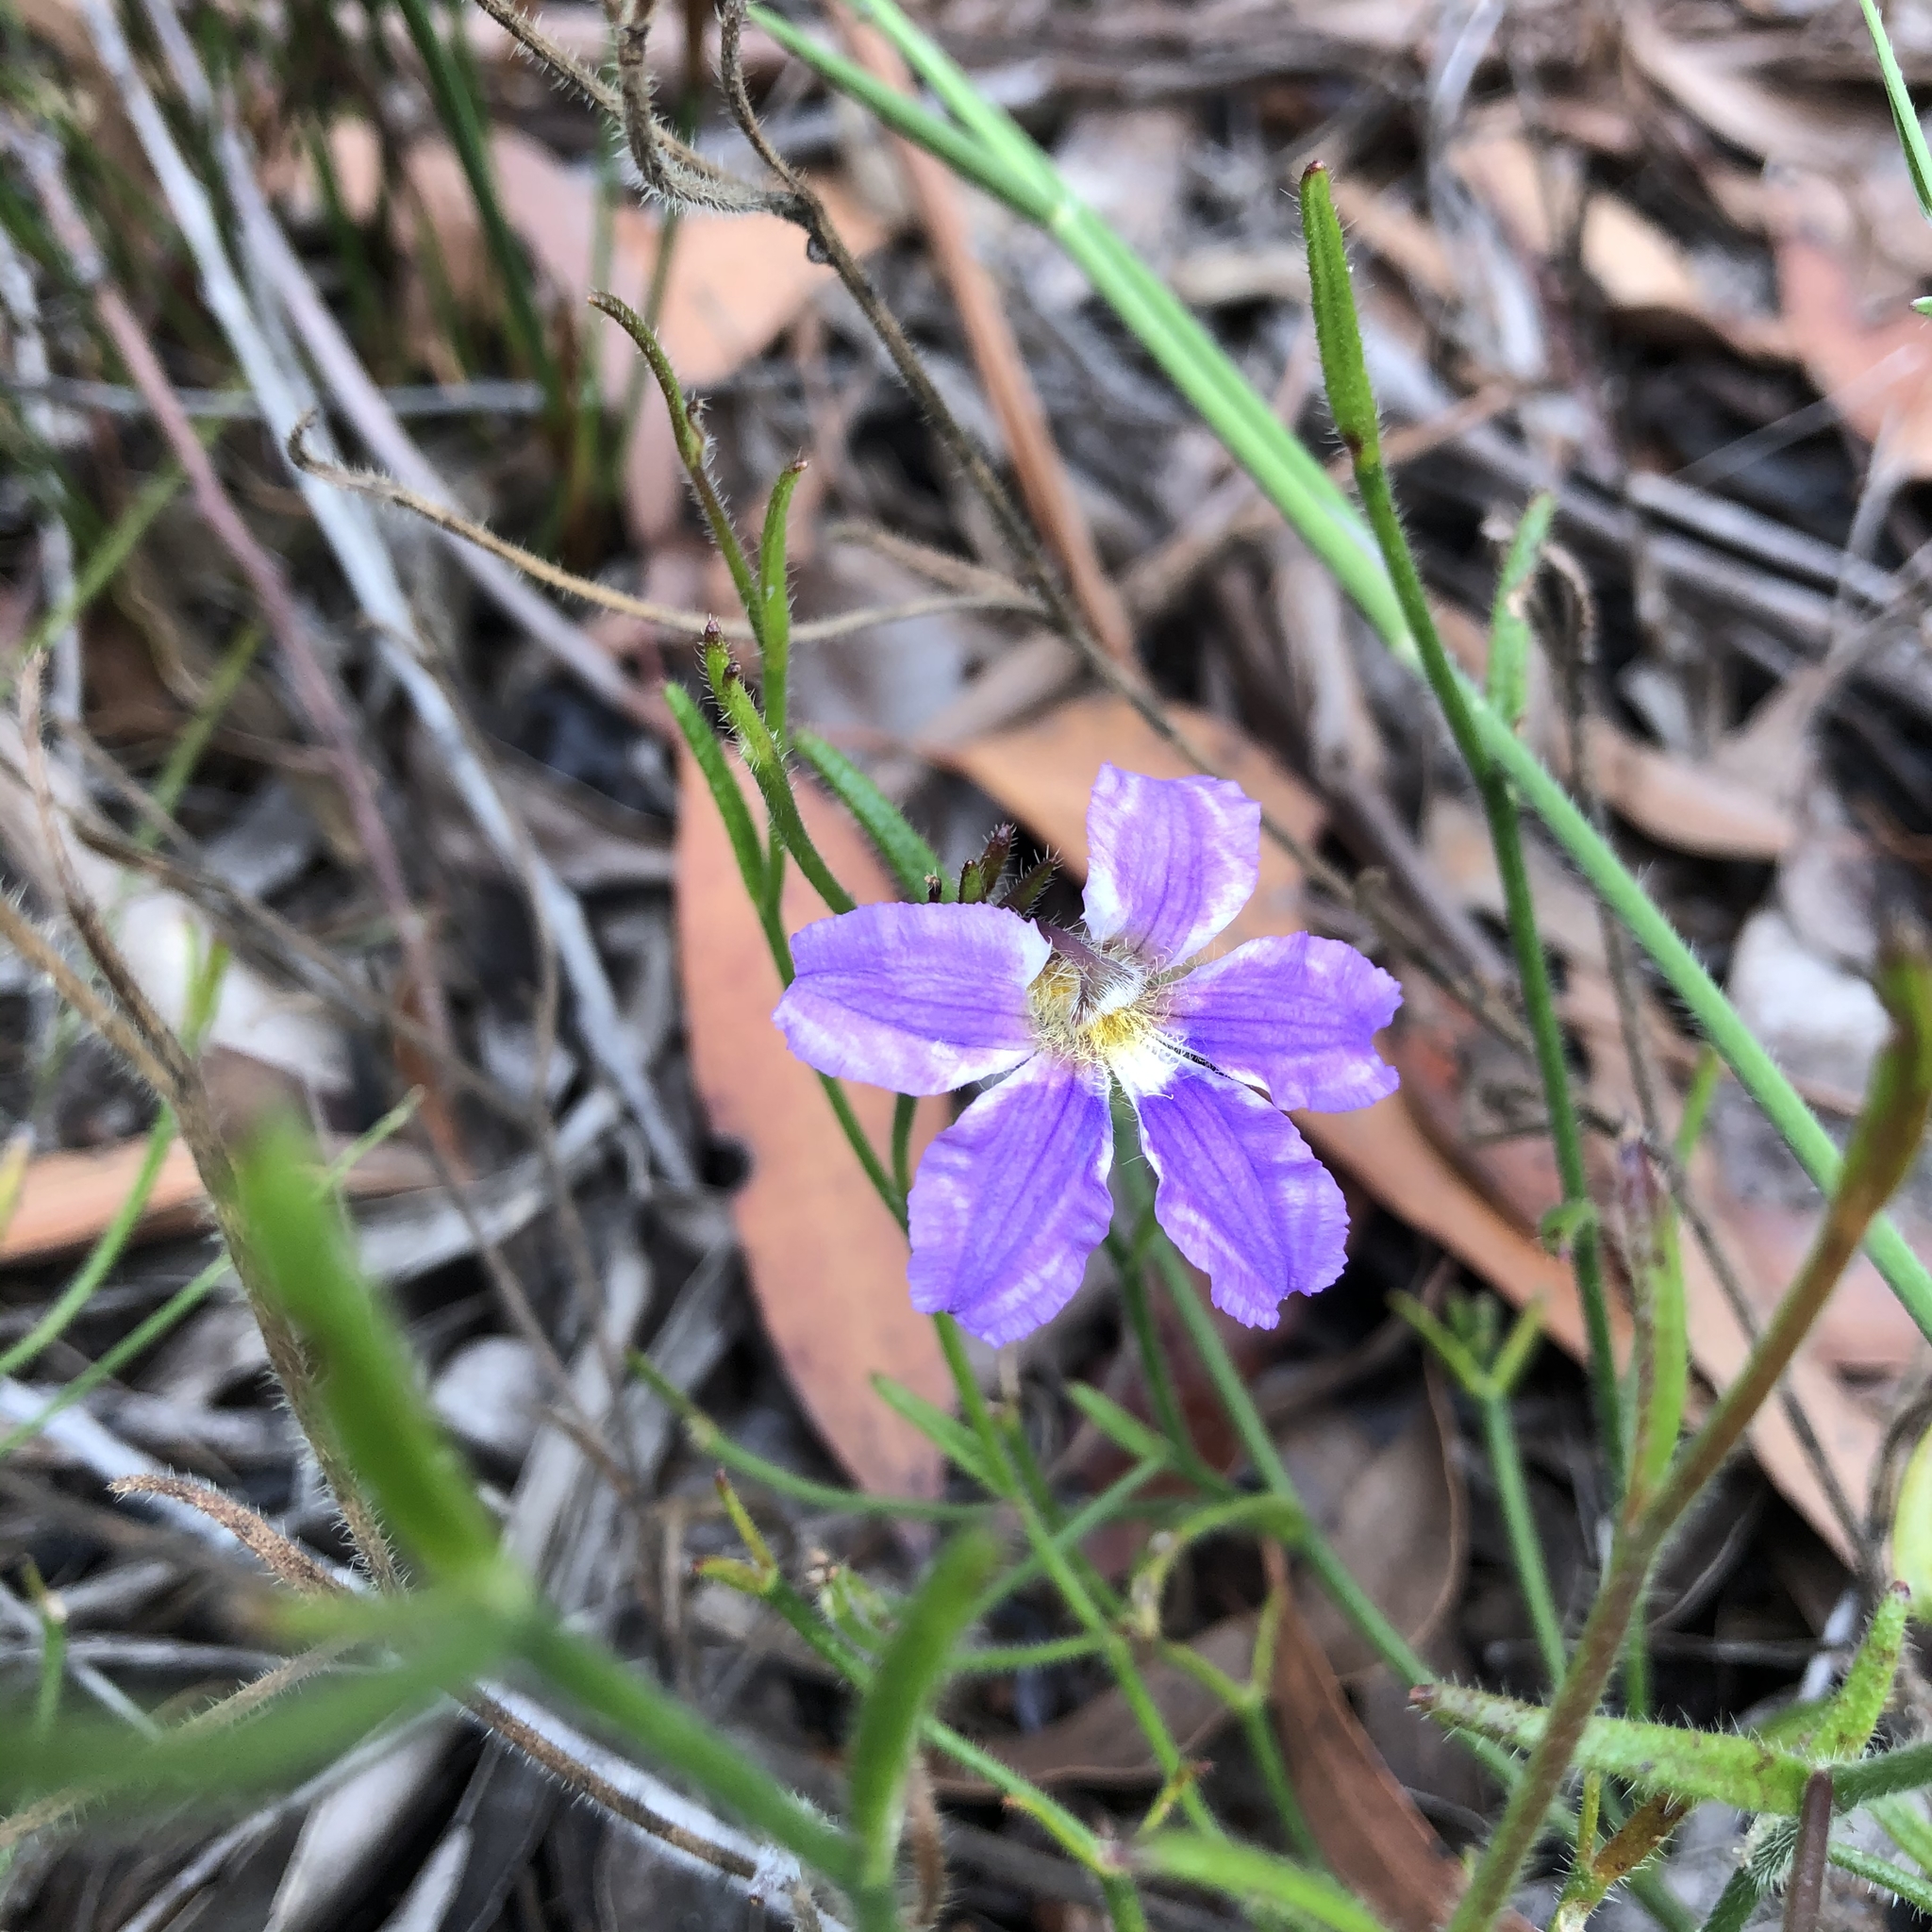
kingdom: Plantae
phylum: Tracheophyta
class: Magnoliopsida
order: Asterales
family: Goodeniaceae
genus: Scaevola
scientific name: Scaevola ramosissima
